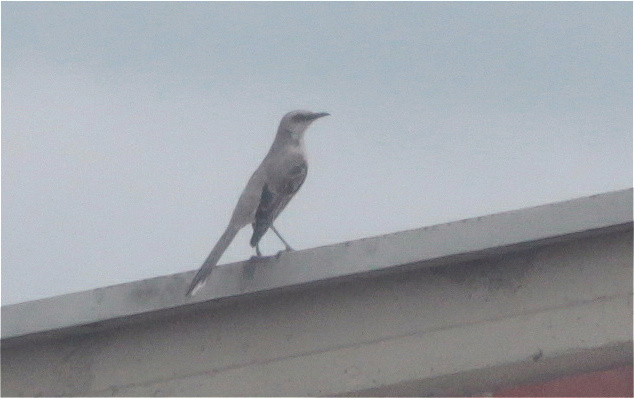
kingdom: Animalia
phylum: Chordata
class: Aves
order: Passeriformes
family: Mimidae
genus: Mimus
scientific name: Mimus gilvus
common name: Tropical mockingbird
